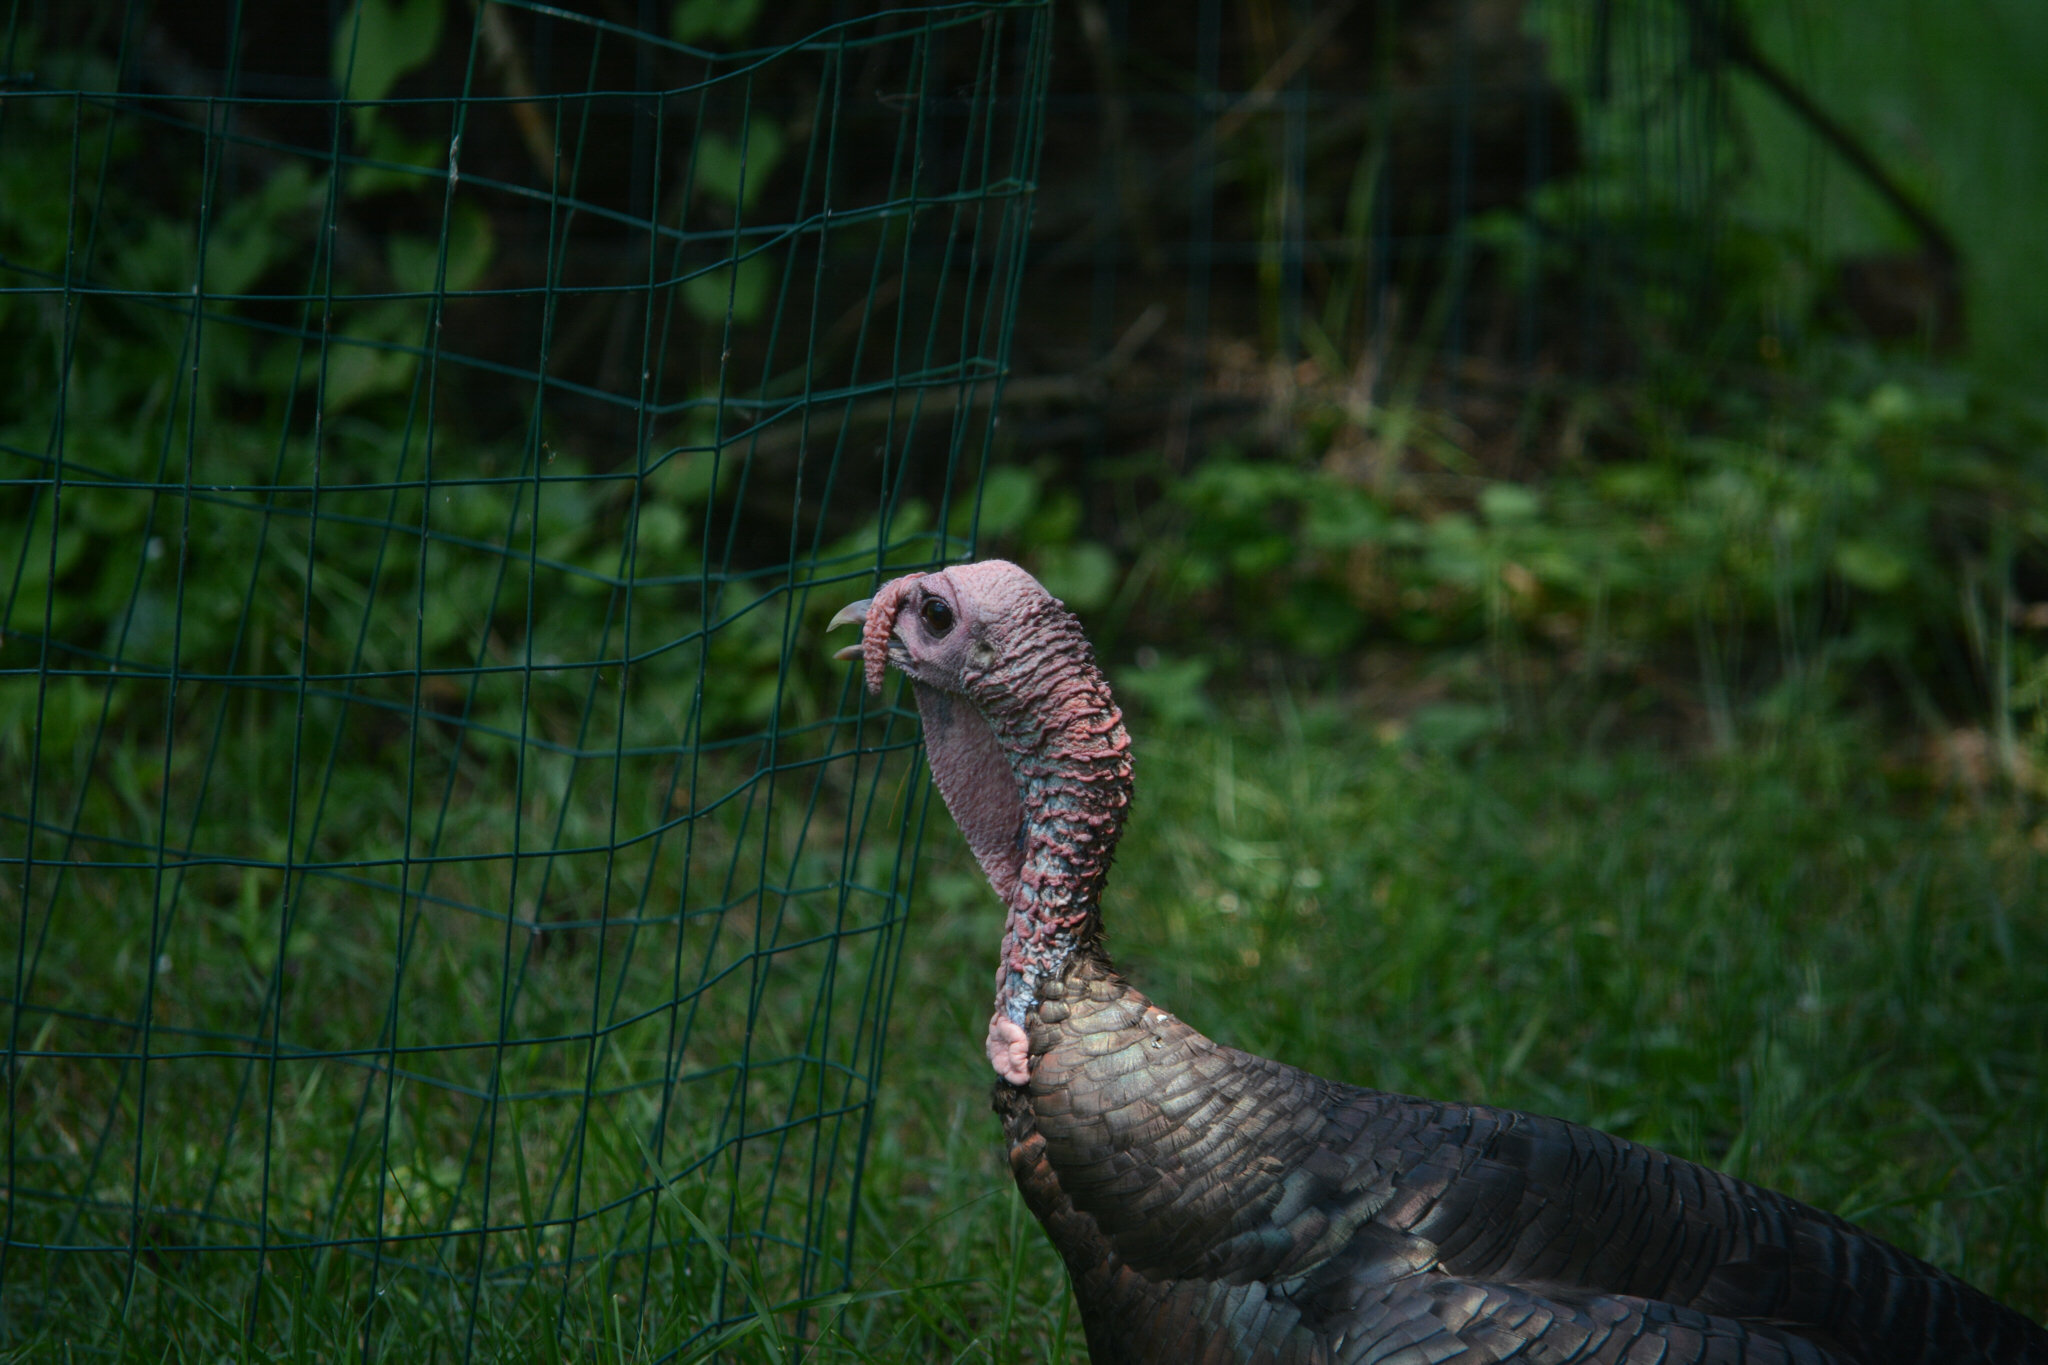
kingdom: Animalia
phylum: Chordata
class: Aves
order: Galliformes
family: Phasianidae
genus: Meleagris
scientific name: Meleagris gallopavo
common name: Wild turkey
